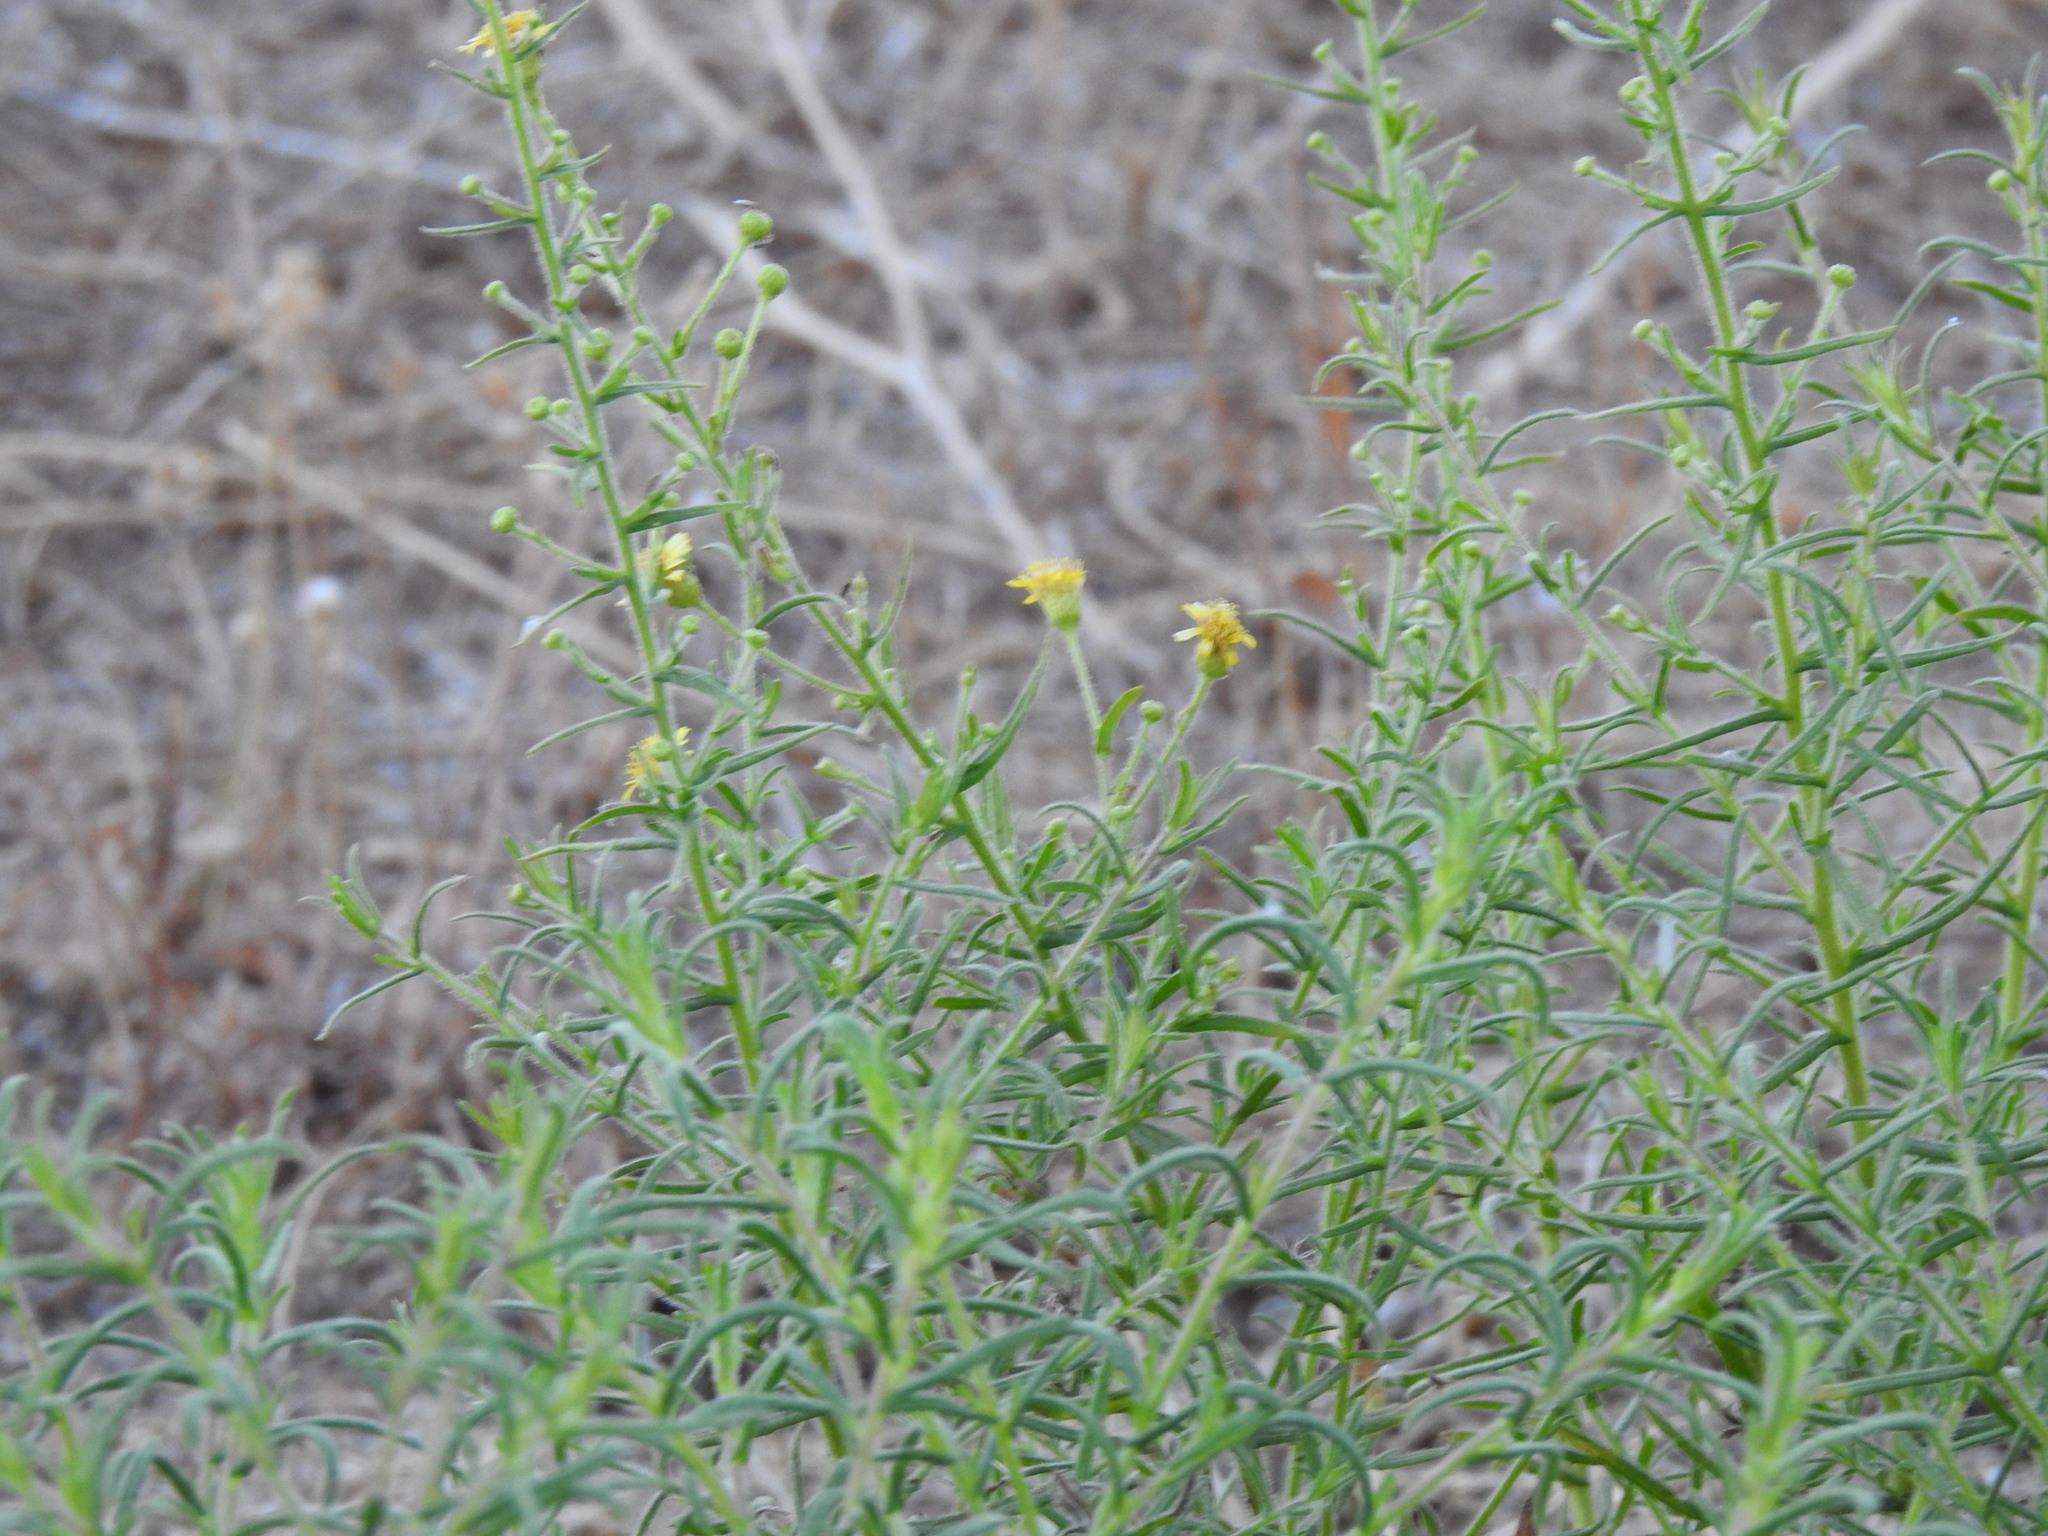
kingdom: Plantae
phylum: Tracheophyta
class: Magnoliopsida
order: Asterales
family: Asteraceae
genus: Dittrichia
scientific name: Dittrichia viscosa
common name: Woody fleabane
